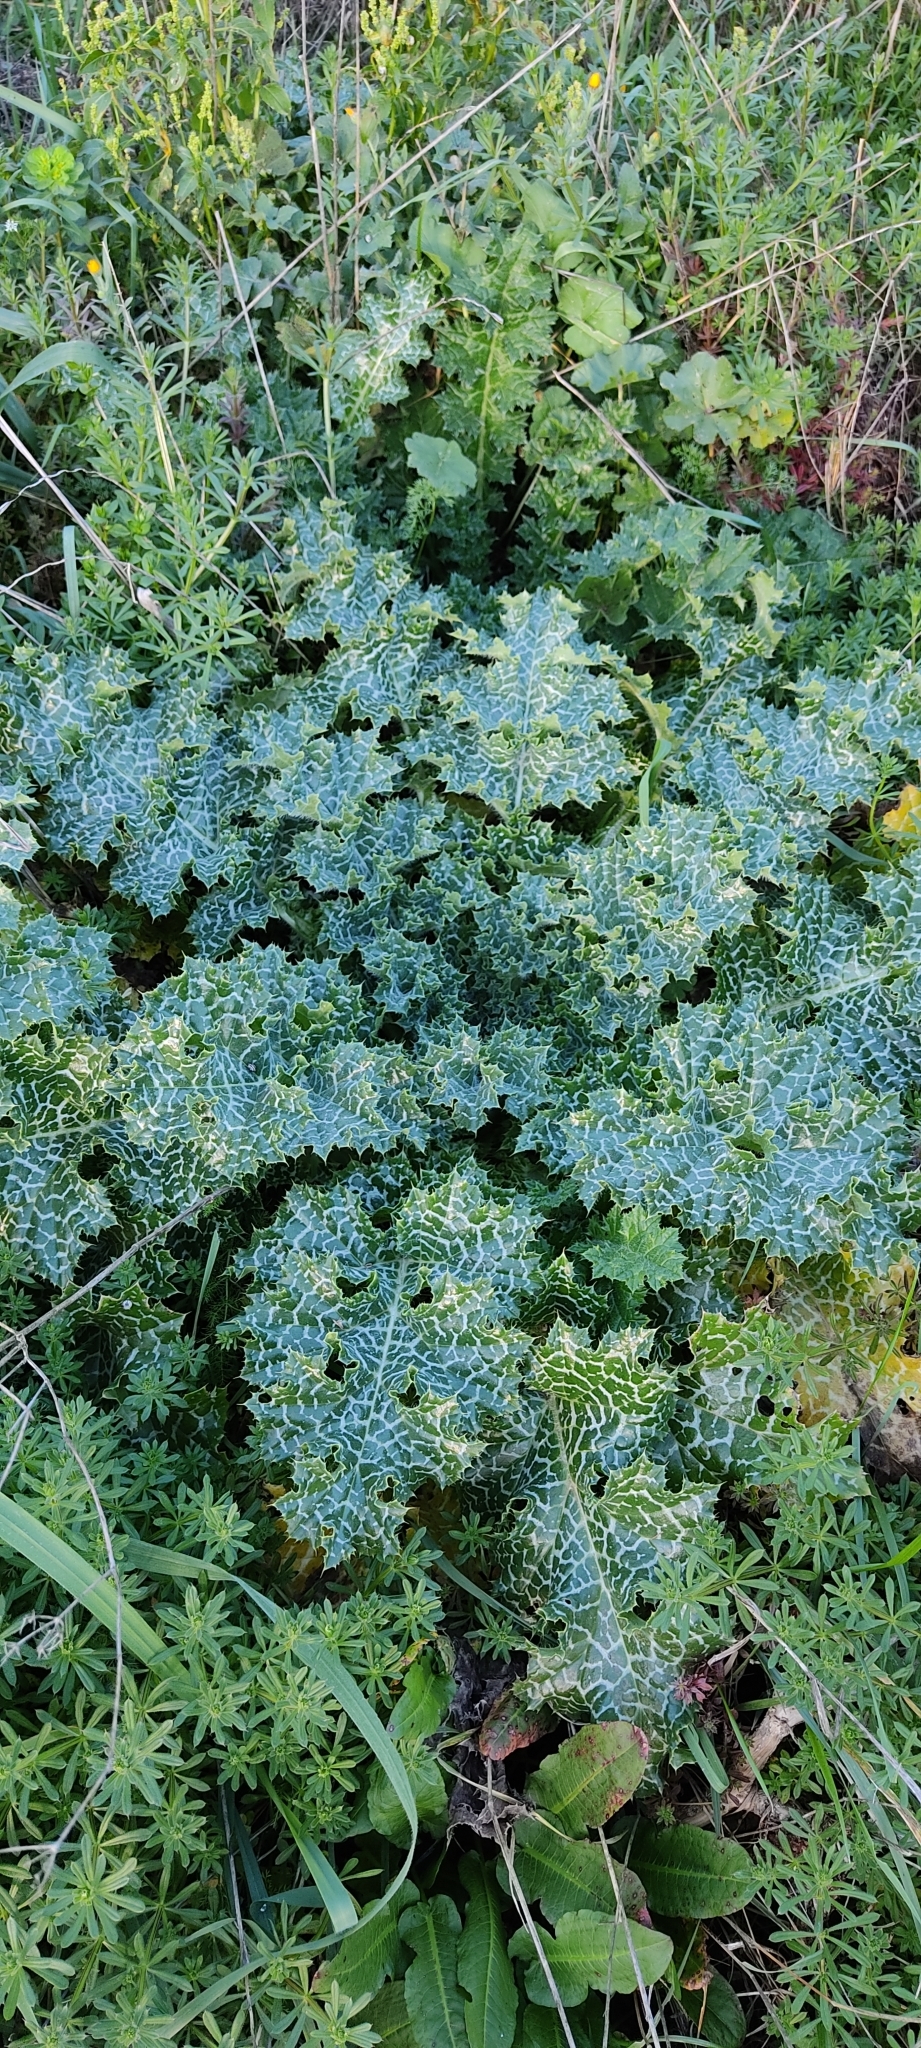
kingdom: Plantae
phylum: Tracheophyta
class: Magnoliopsida
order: Asterales
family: Asteraceae
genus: Silybum
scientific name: Silybum marianum
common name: Milk thistle
